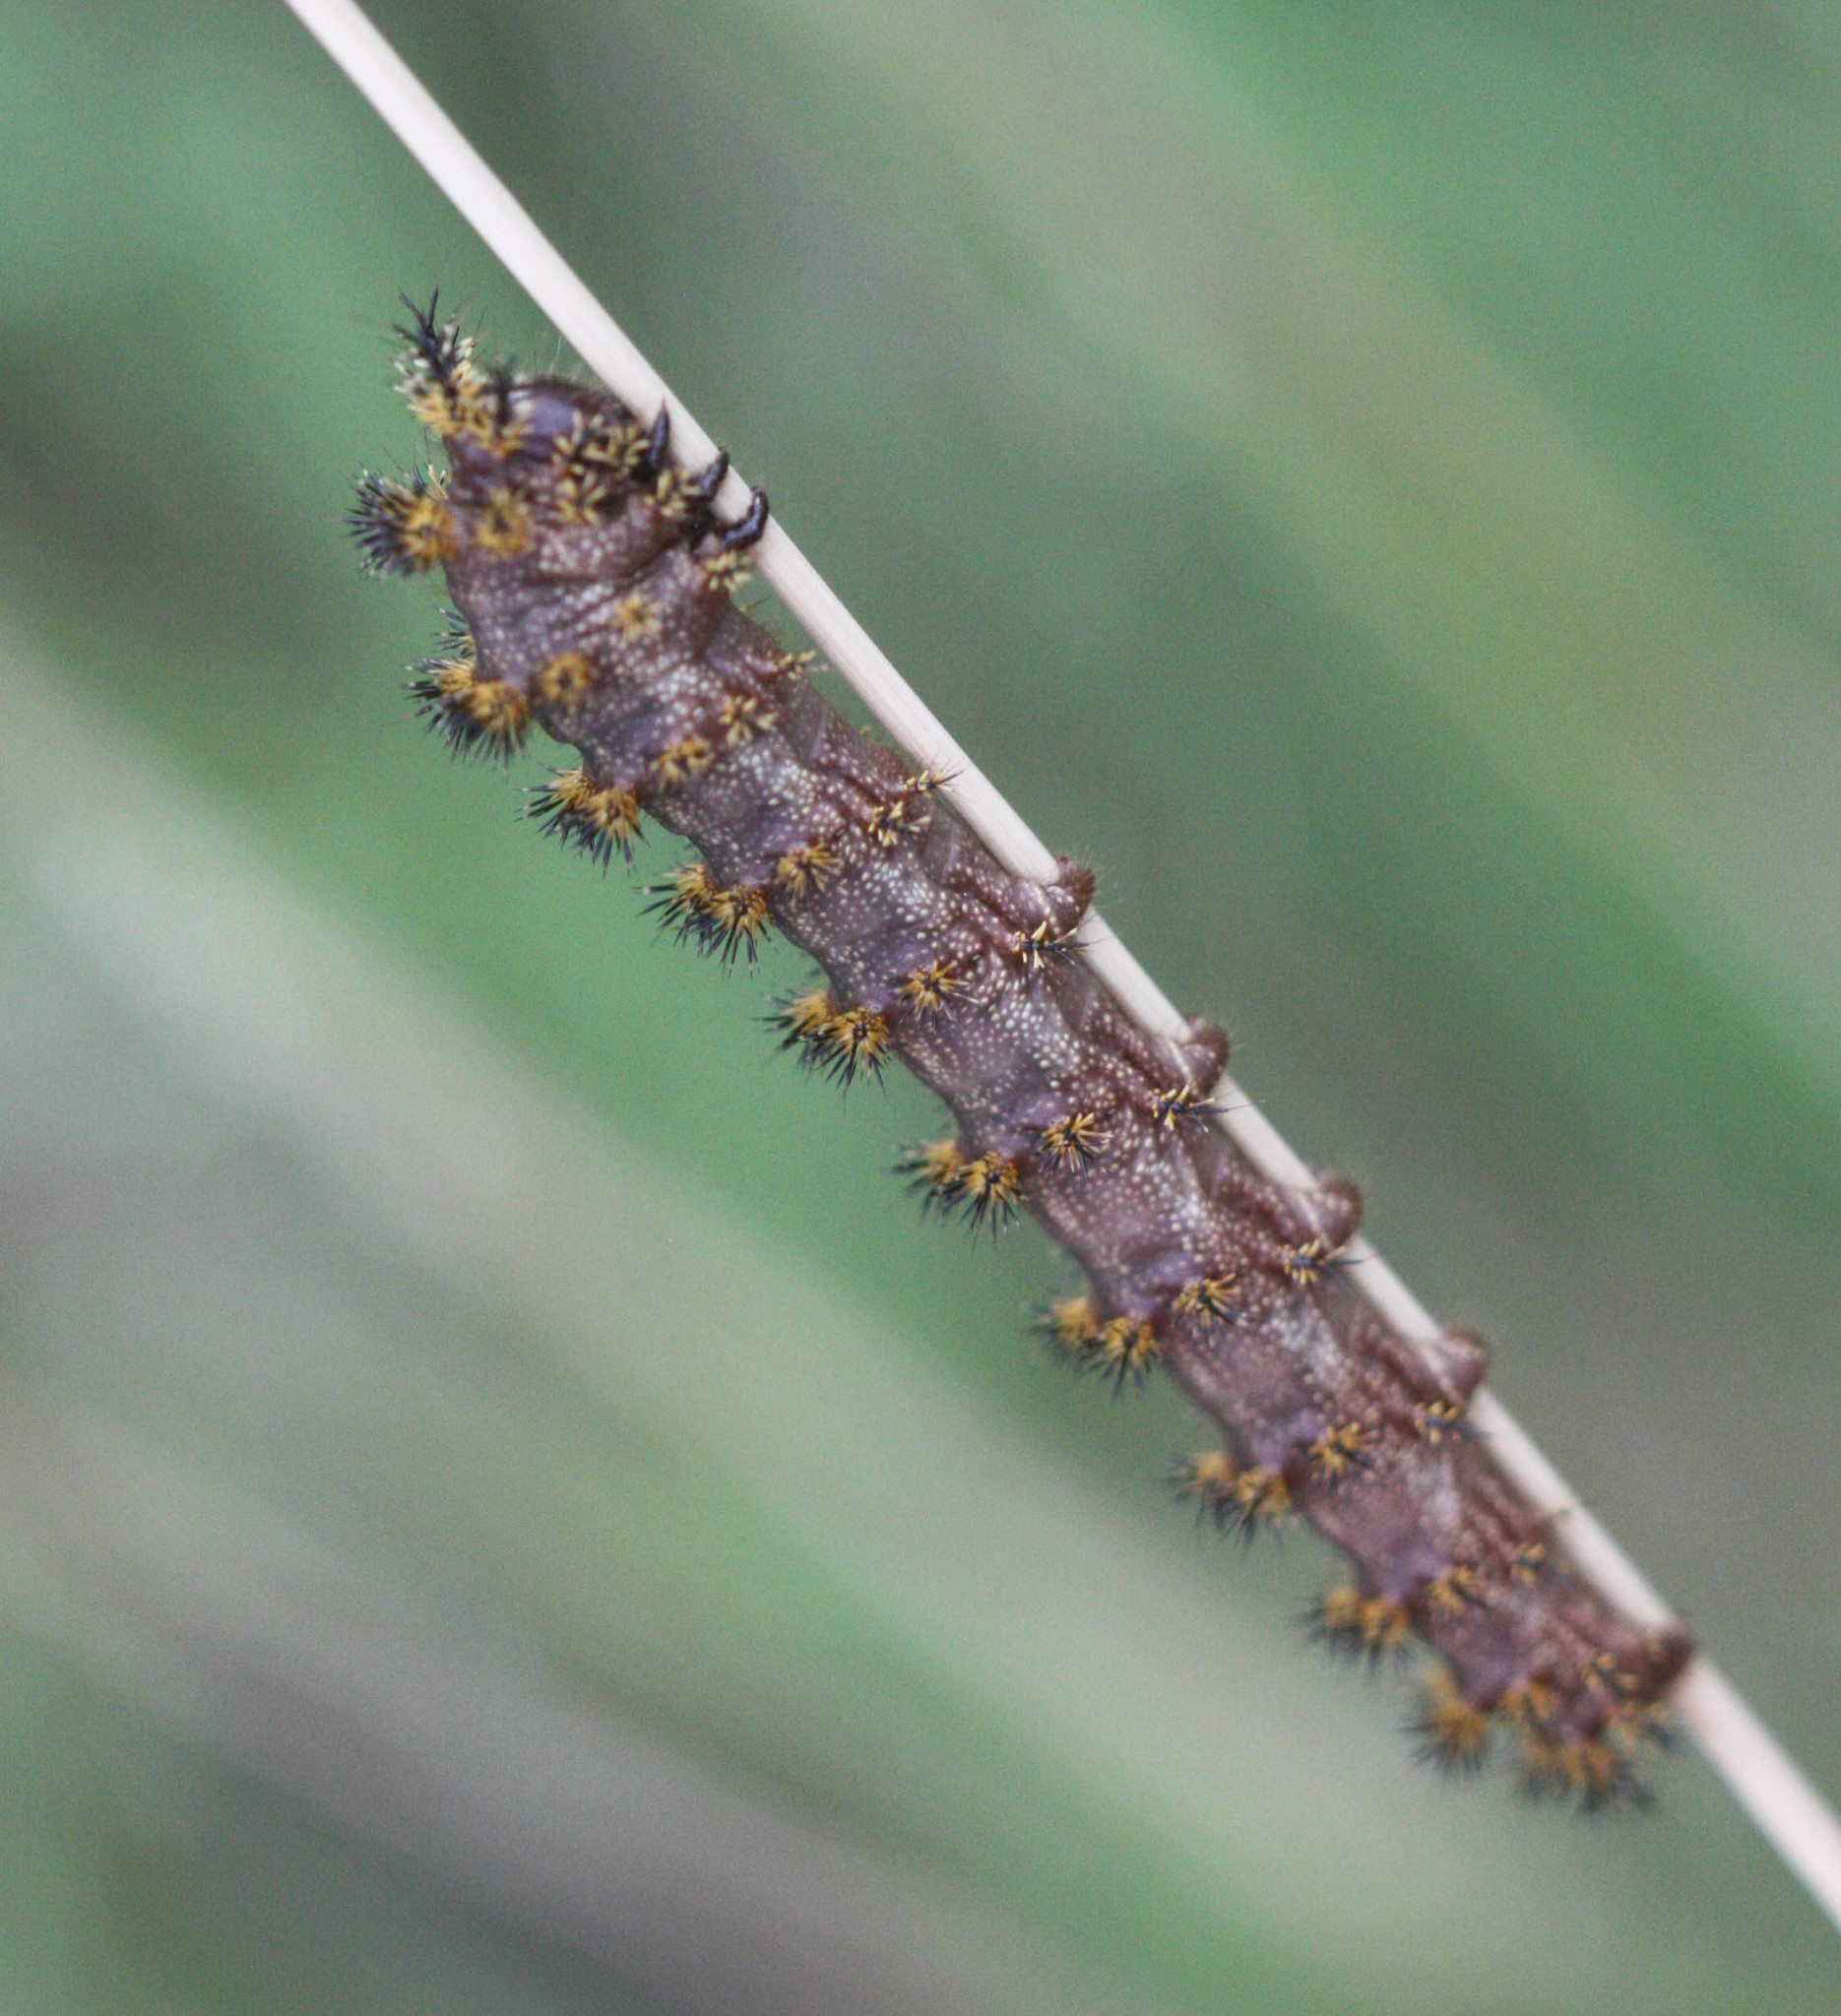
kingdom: Animalia
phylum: Arthropoda
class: Insecta
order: Lepidoptera
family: Saturniidae
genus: Hemileuca
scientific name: Hemileuca hualapai
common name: Hualapai buckmoth
